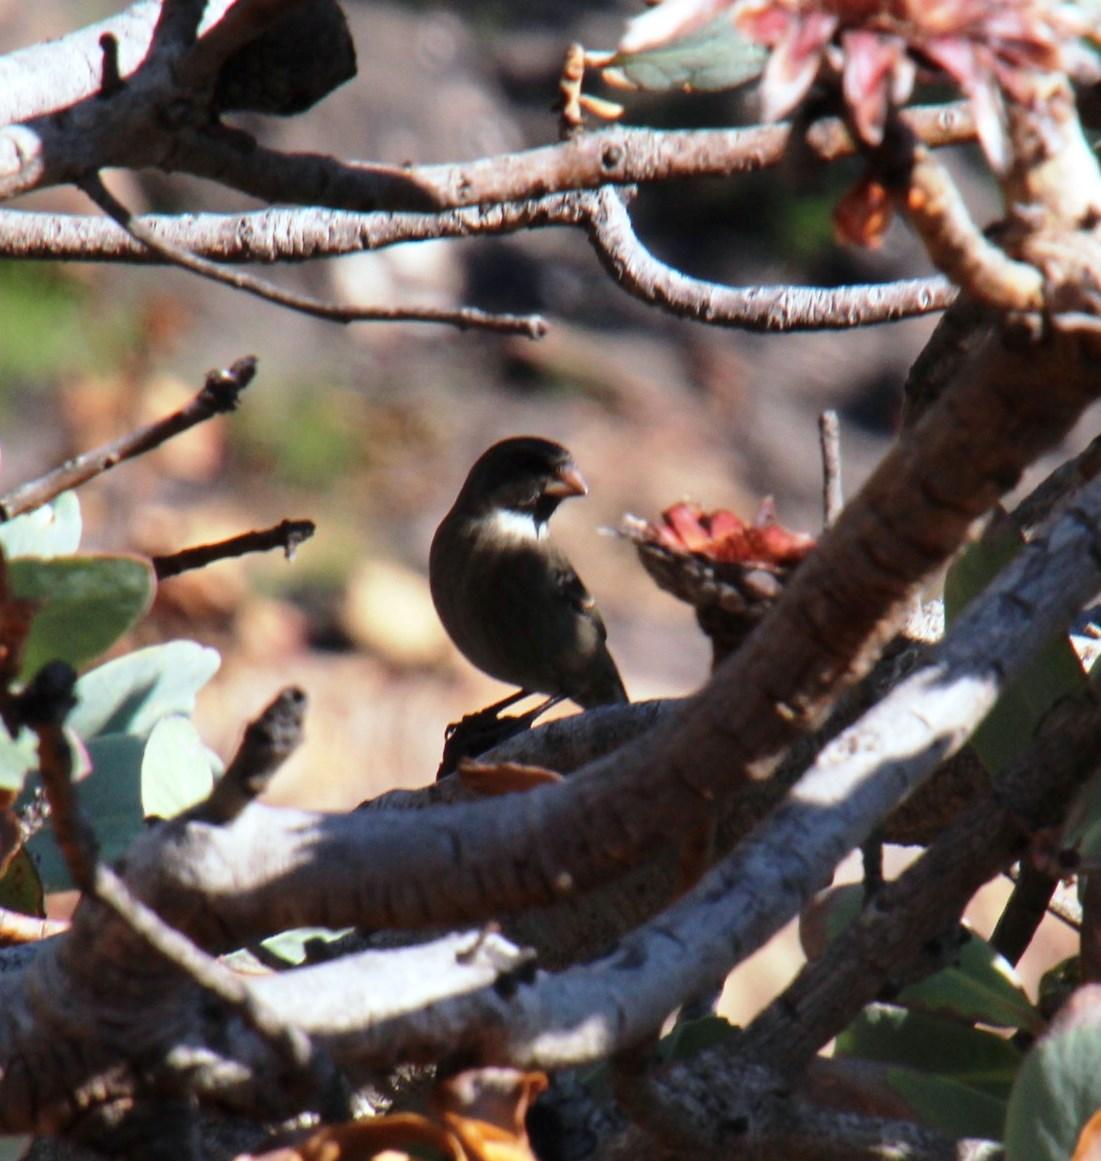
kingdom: Animalia
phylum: Chordata
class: Aves
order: Passeriformes
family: Fringillidae
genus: Crithagra
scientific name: Crithagra leucoptera
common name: Protea canary
